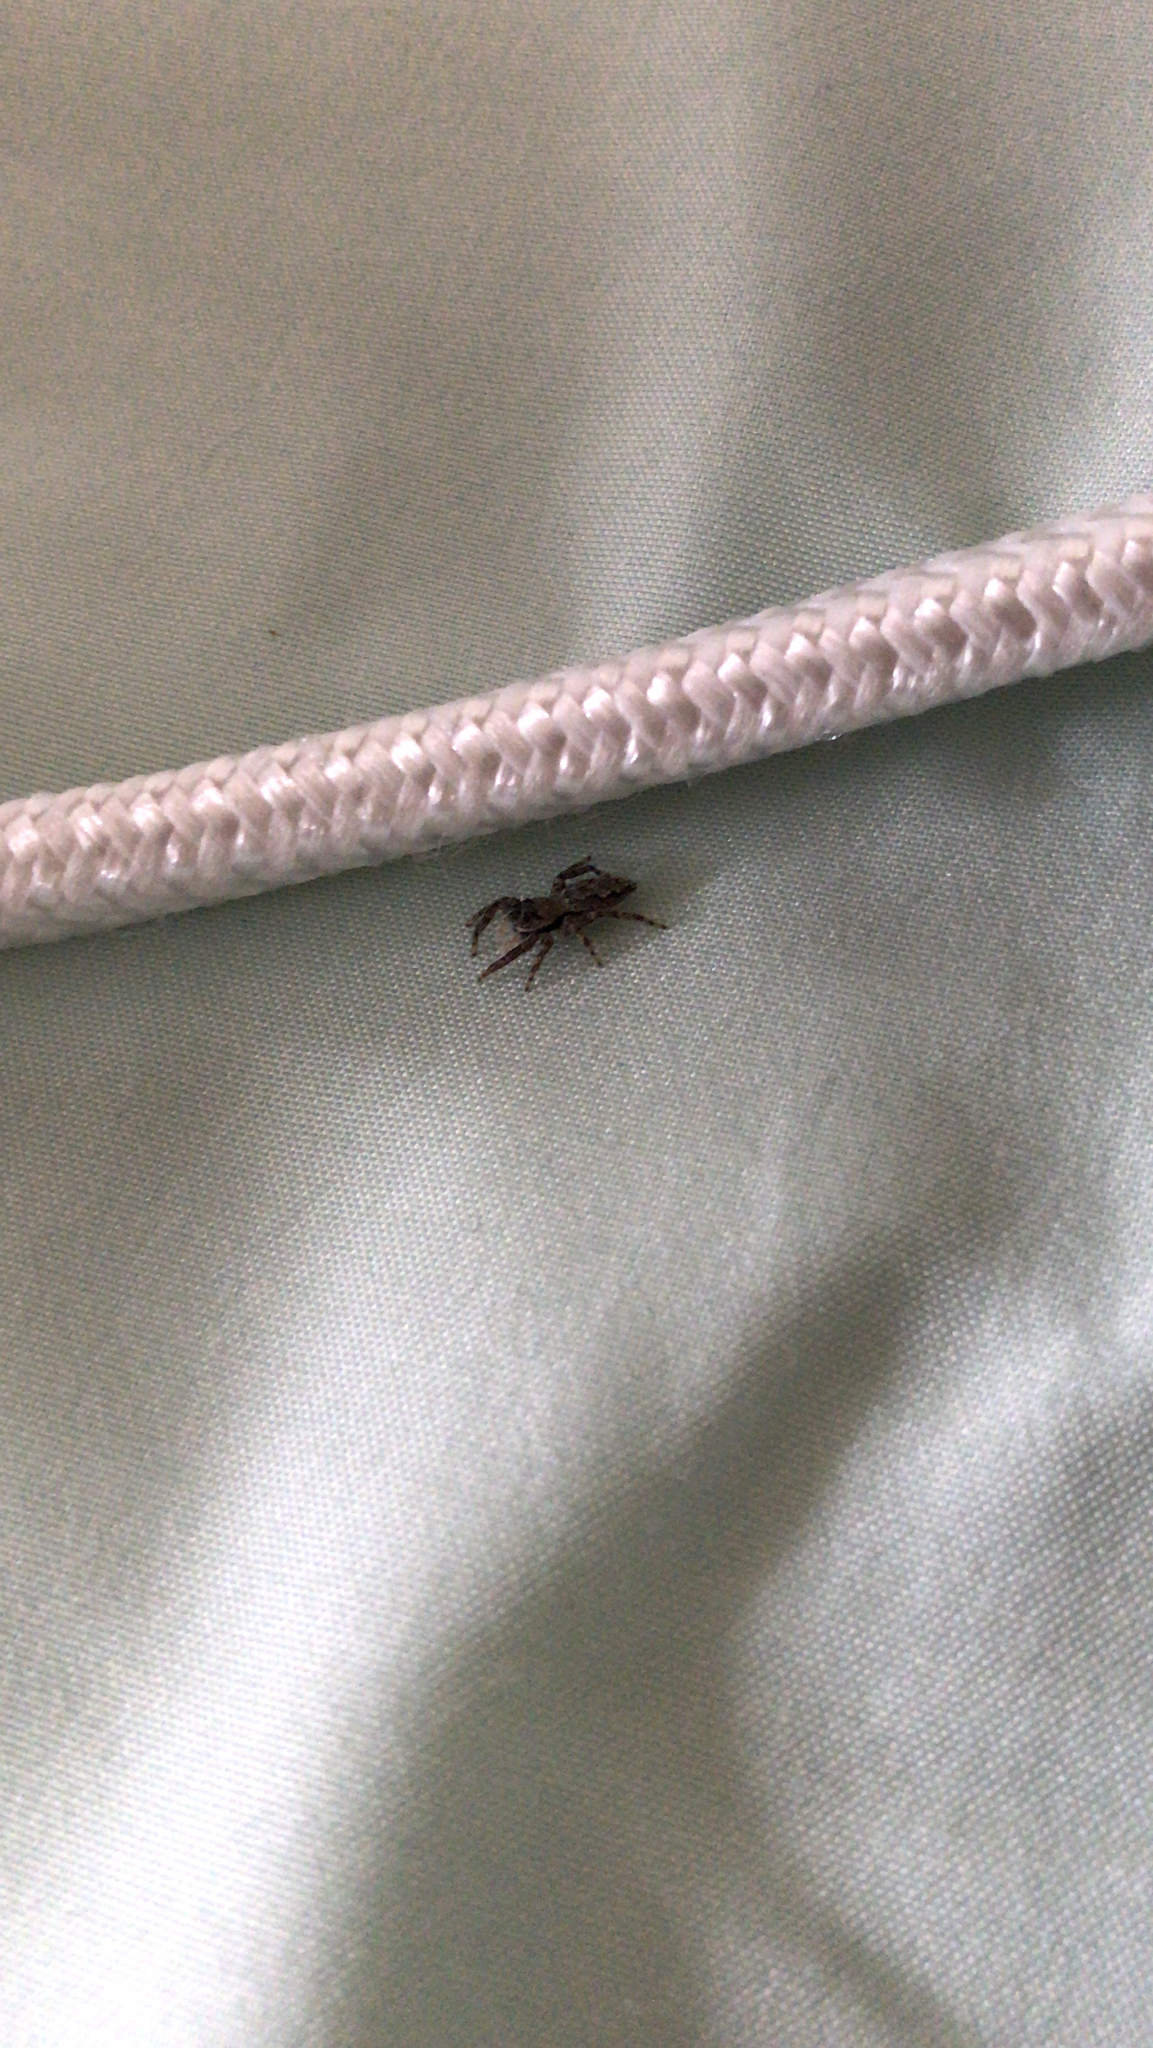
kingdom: Animalia
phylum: Arthropoda
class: Arachnida
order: Araneae
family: Salticidae
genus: Platycryptus
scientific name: Platycryptus undatus
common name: Tan jumping spider
